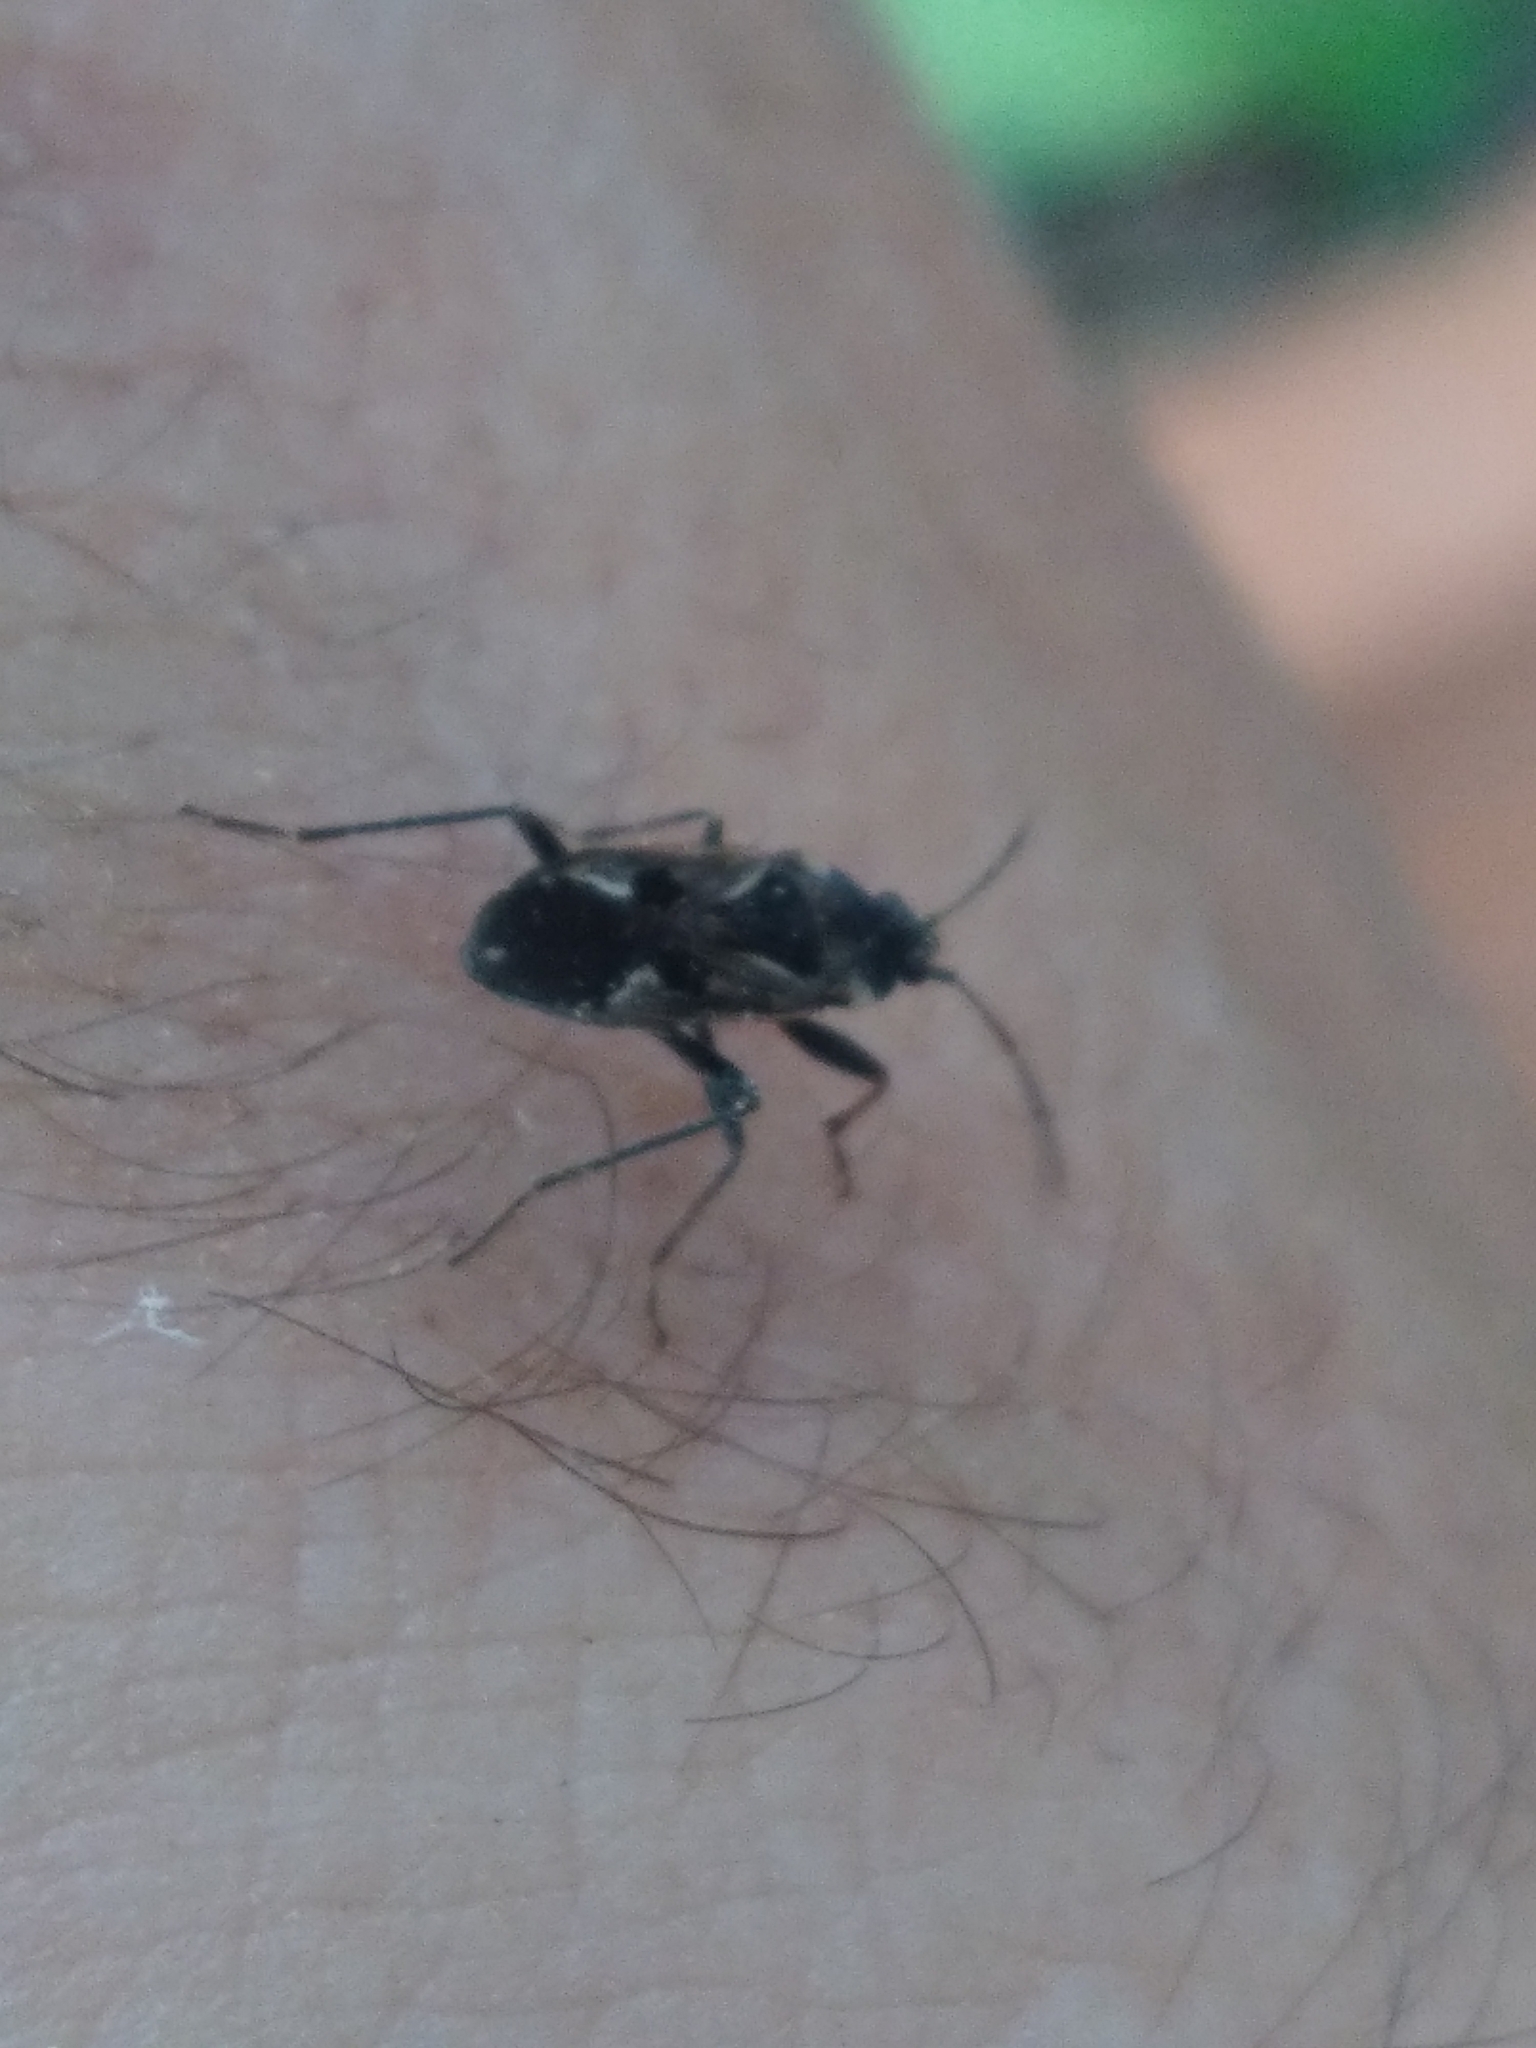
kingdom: Animalia
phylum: Arthropoda
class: Insecta
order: Hemiptera
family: Rhyparochromidae
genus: Rhyparochromus
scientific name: Rhyparochromus vulgaris
